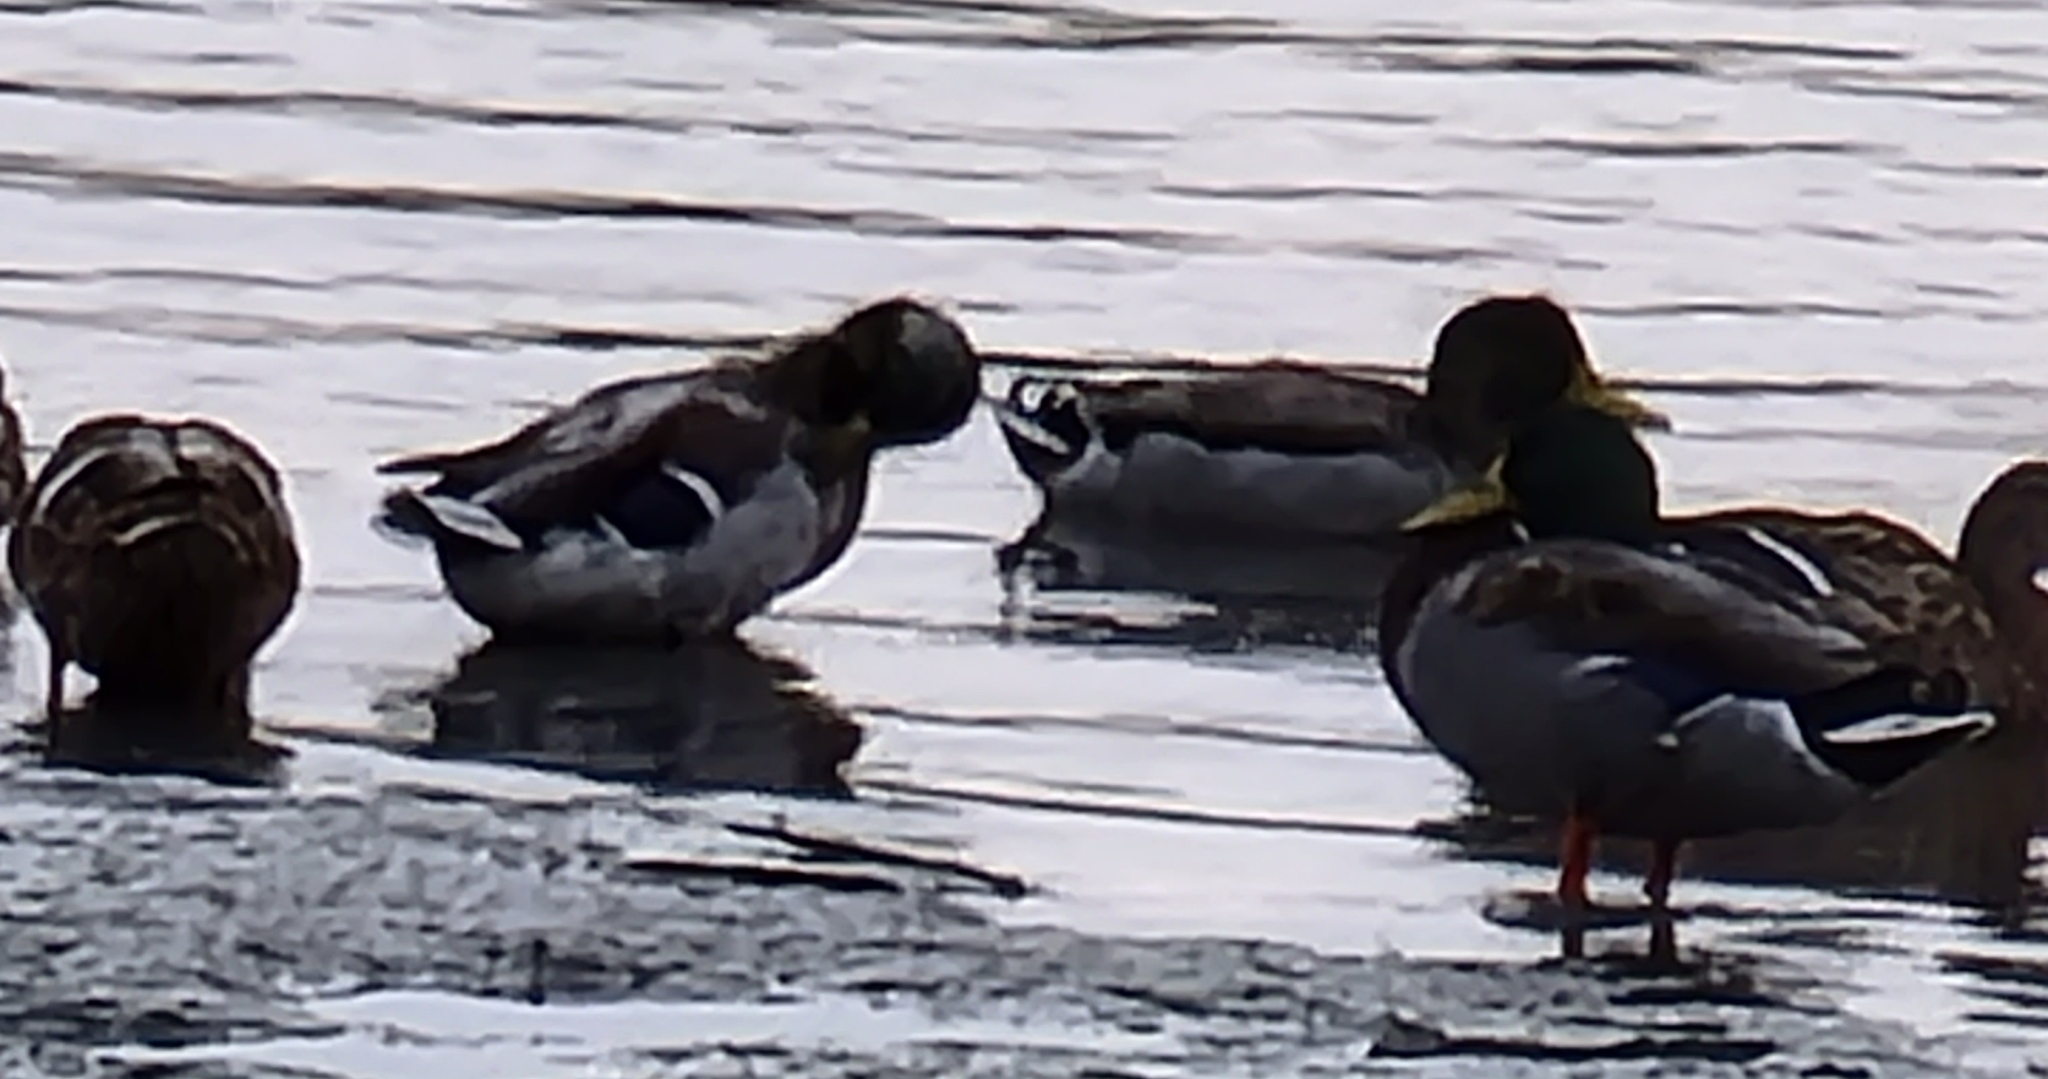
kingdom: Animalia
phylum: Chordata
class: Aves
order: Anseriformes
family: Anatidae
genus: Anas
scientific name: Anas platyrhynchos
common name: Mallard
